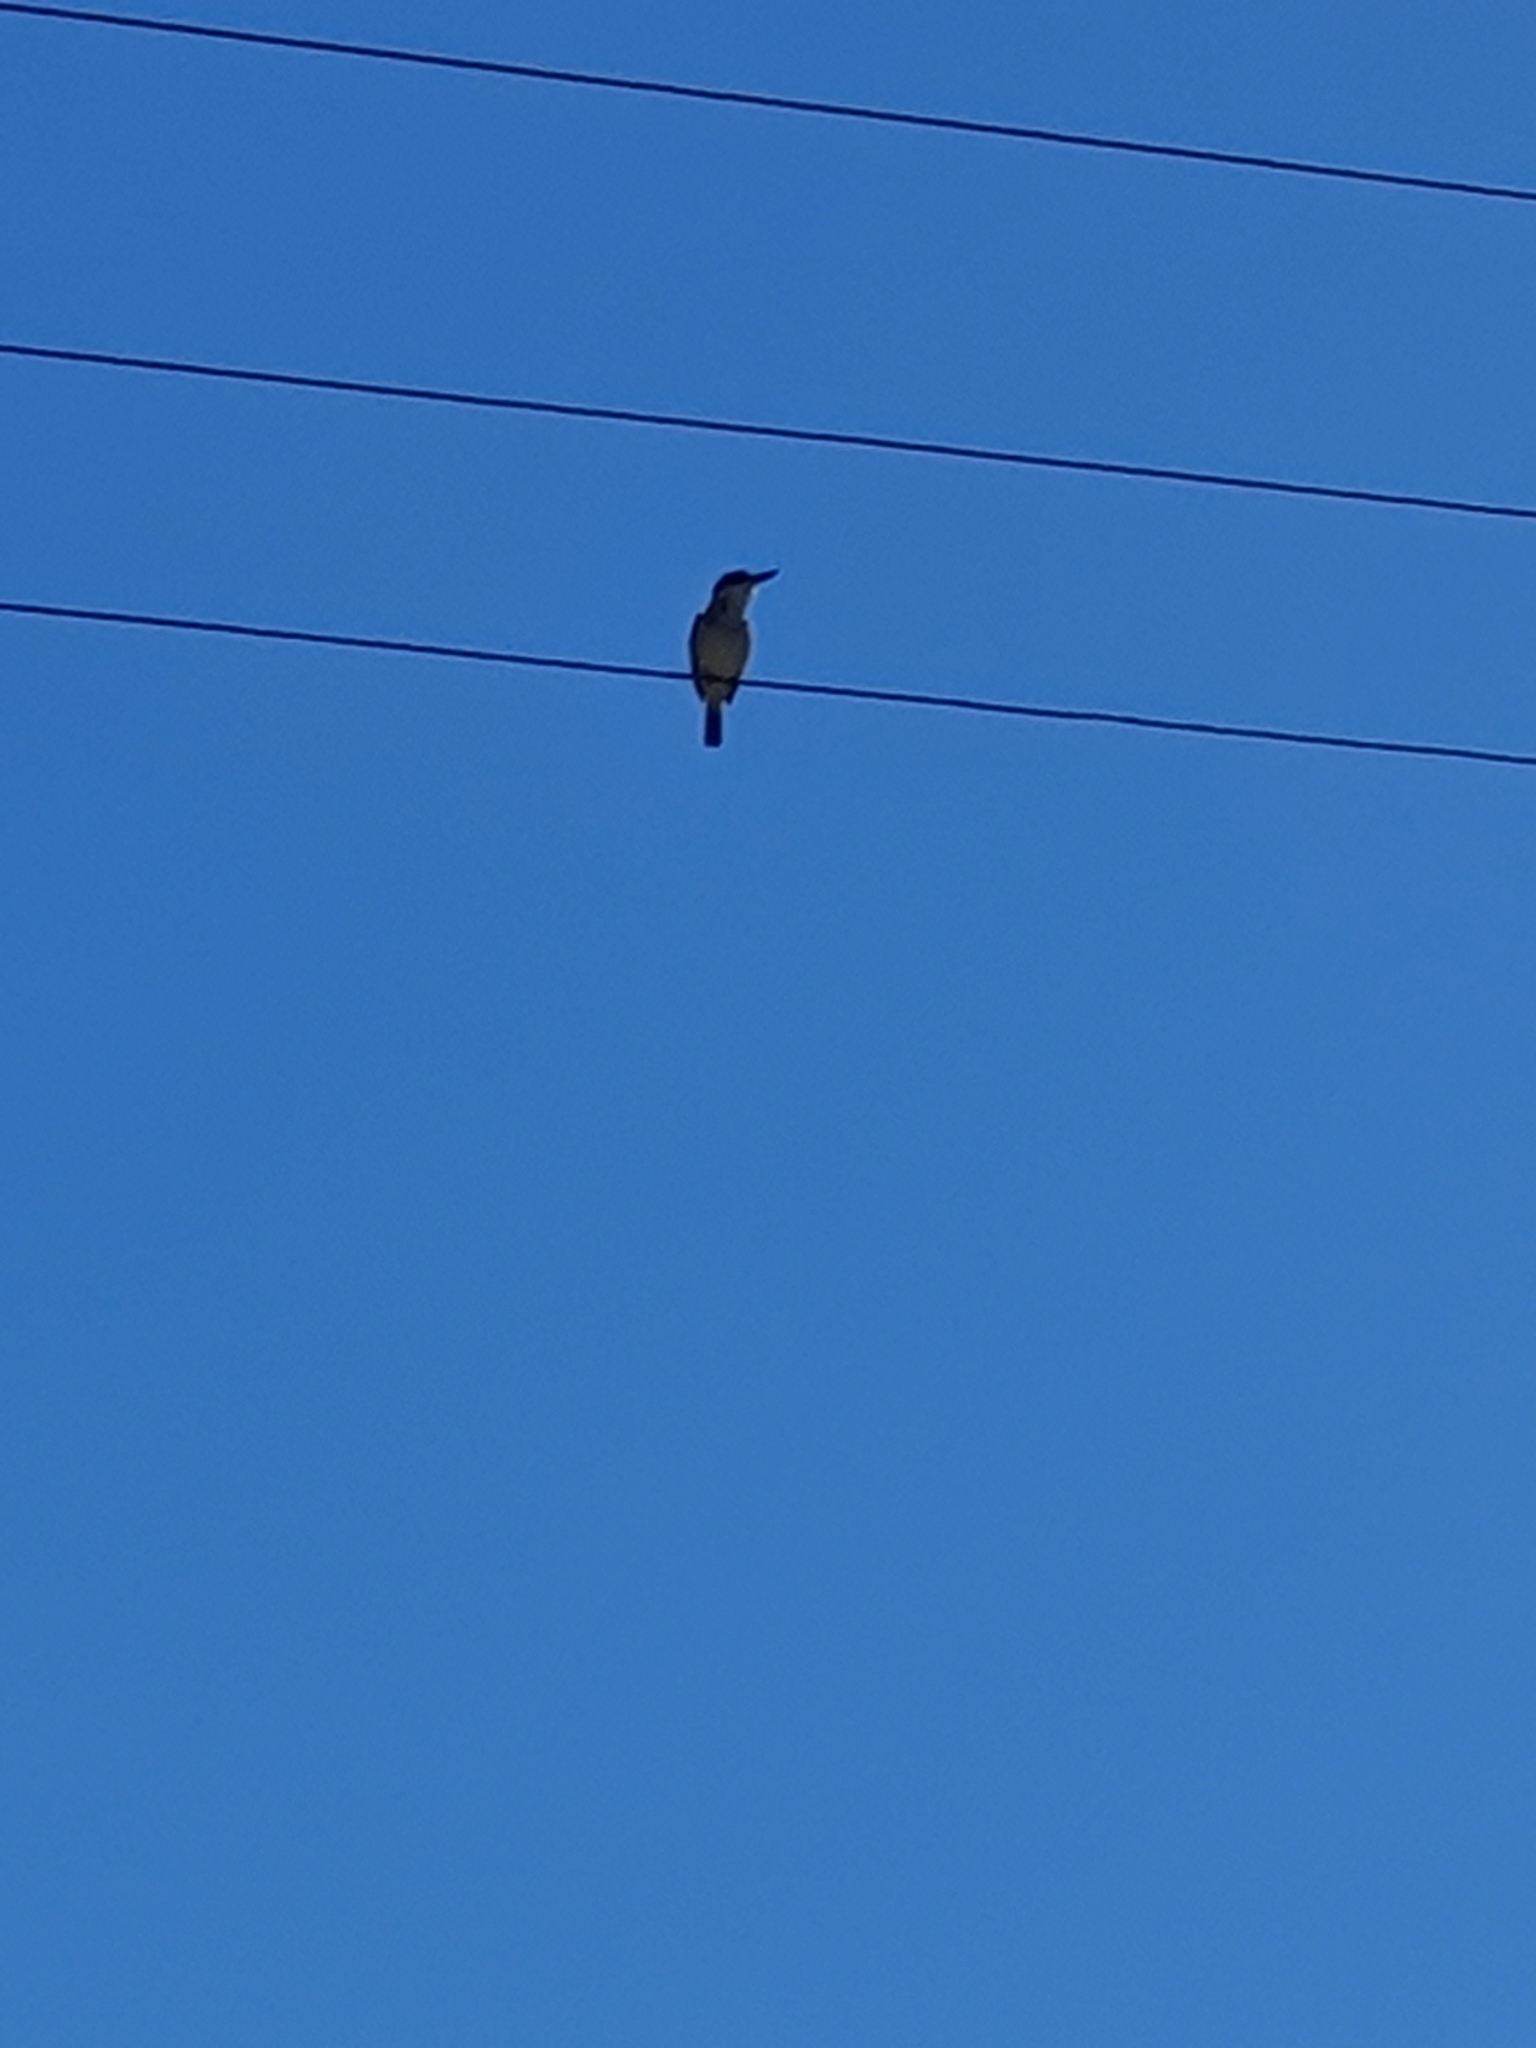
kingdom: Animalia
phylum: Chordata
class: Aves
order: Coraciiformes
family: Alcedinidae
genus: Todiramphus
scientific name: Todiramphus sanctus
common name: Sacred kingfisher
